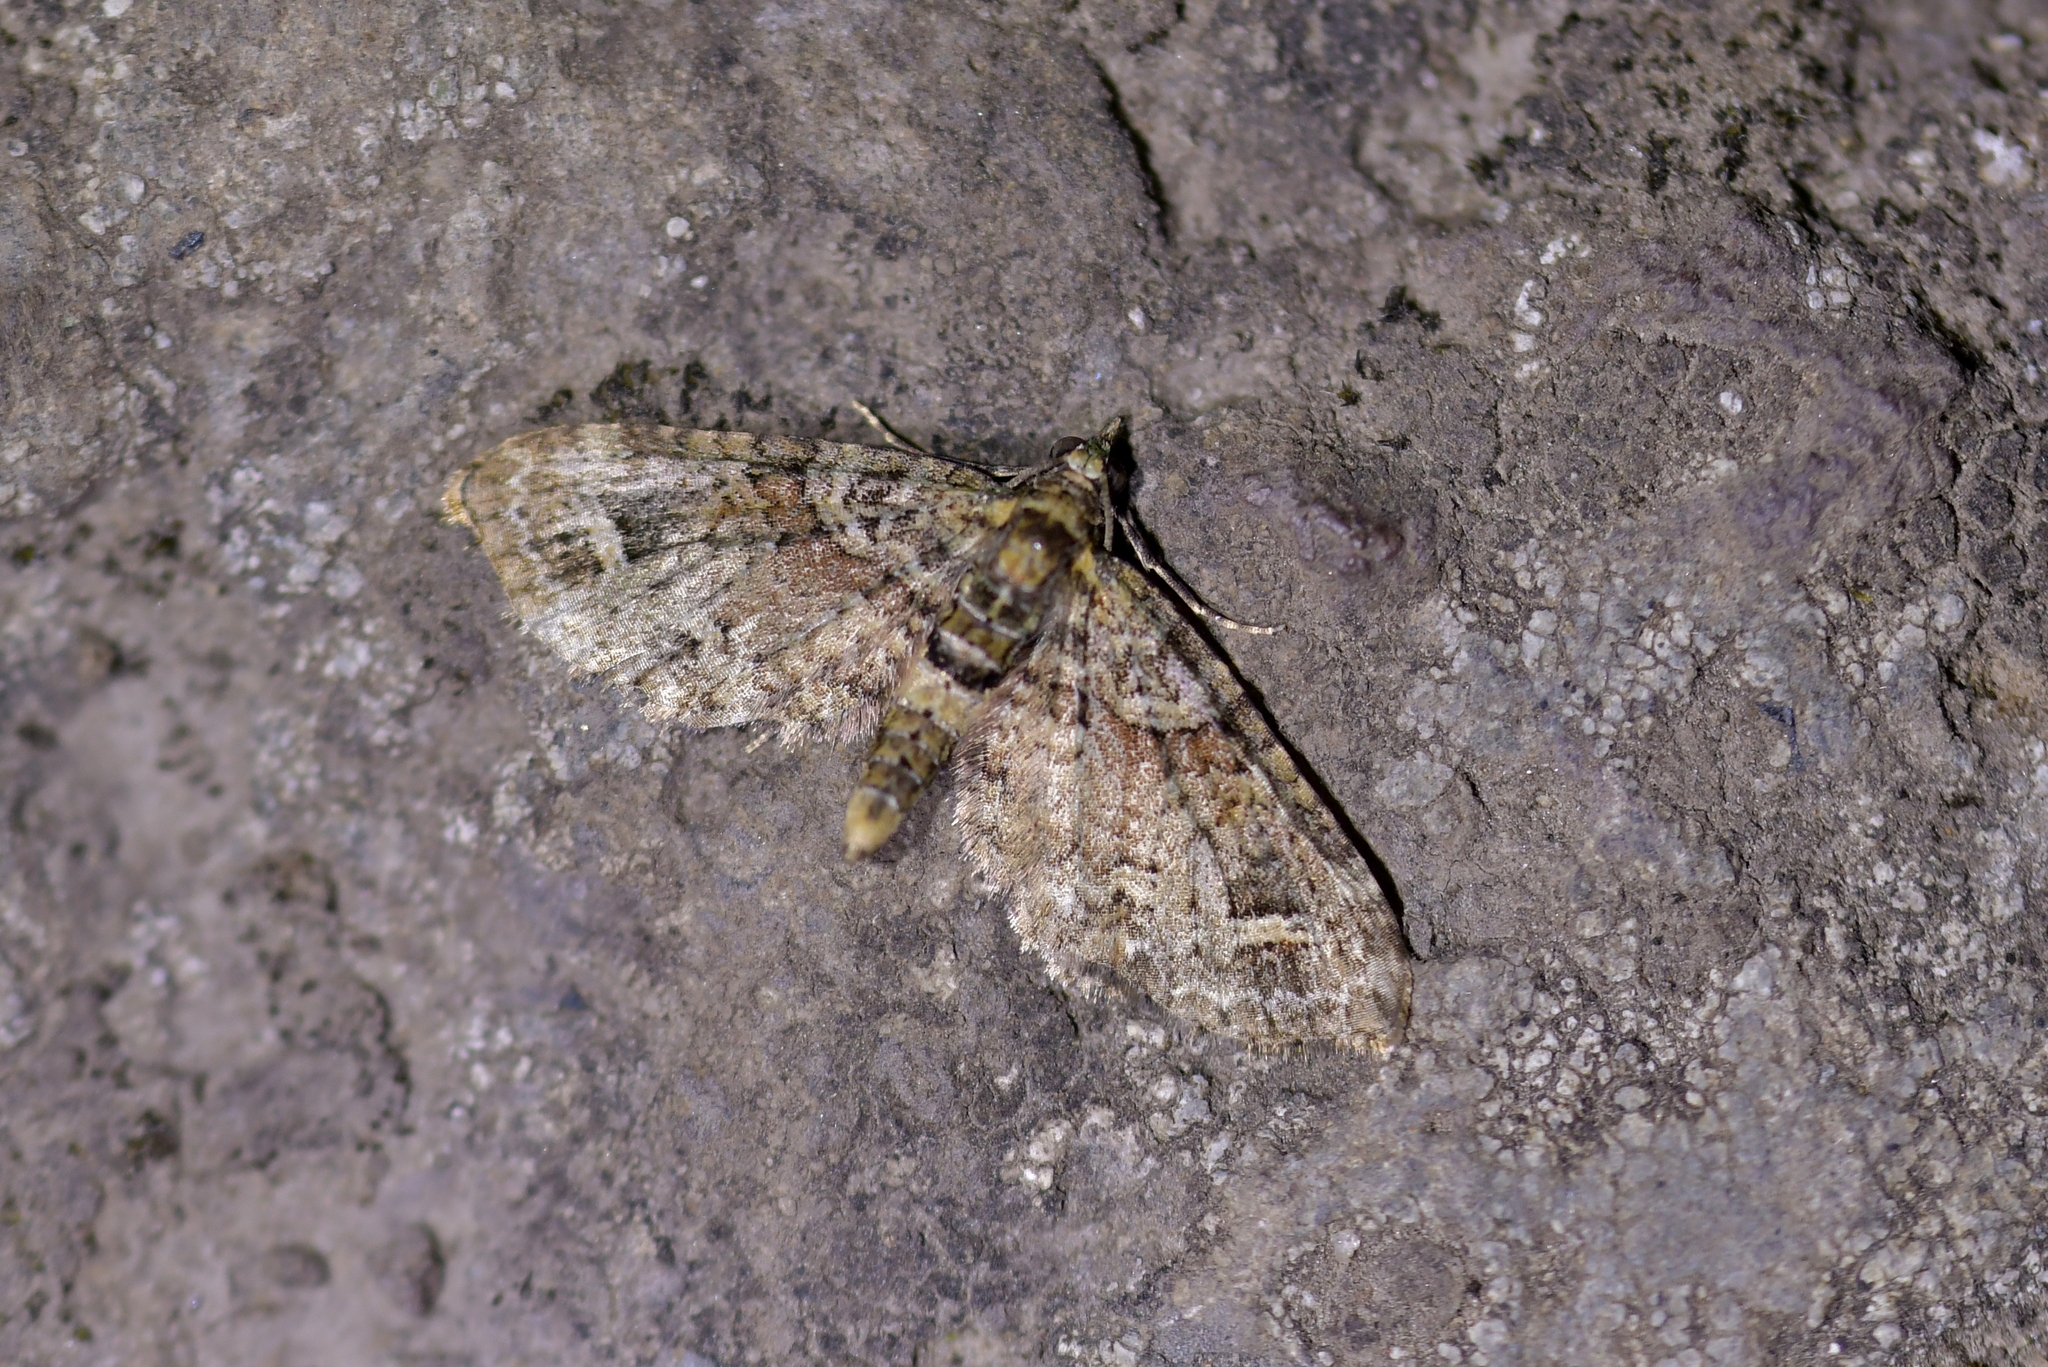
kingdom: Animalia
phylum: Arthropoda
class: Insecta
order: Lepidoptera
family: Geometridae
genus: Idaea
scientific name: Idaea mutanda
